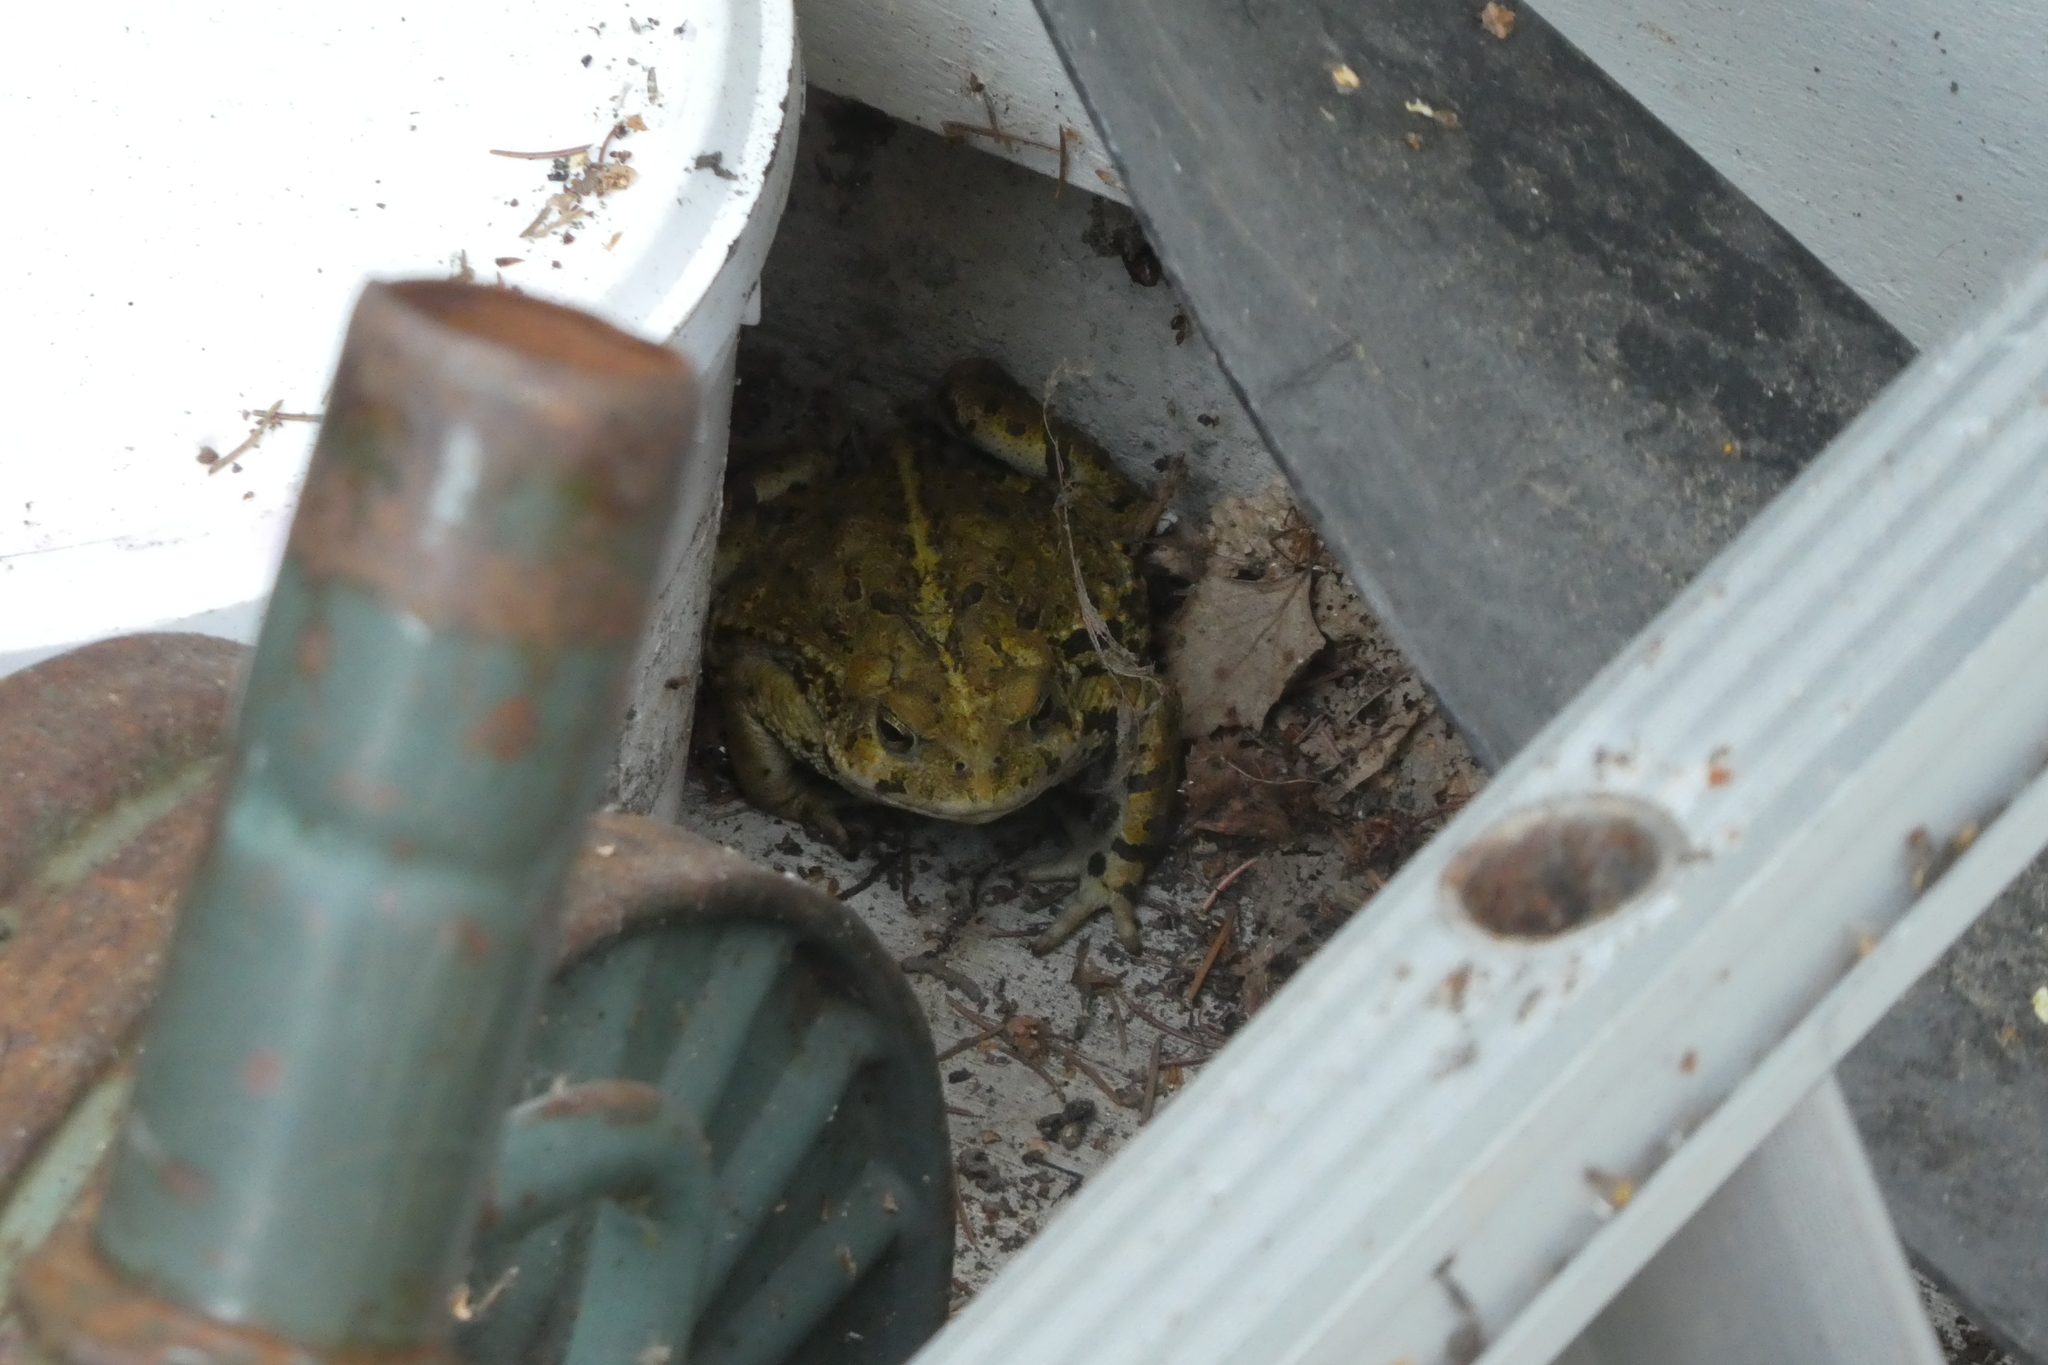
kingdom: Animalia
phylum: Chordata
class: Amphibia
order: Anura
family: Bufonidae
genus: Anaxyrus
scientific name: Anaxyrus boreas
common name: Western toad
